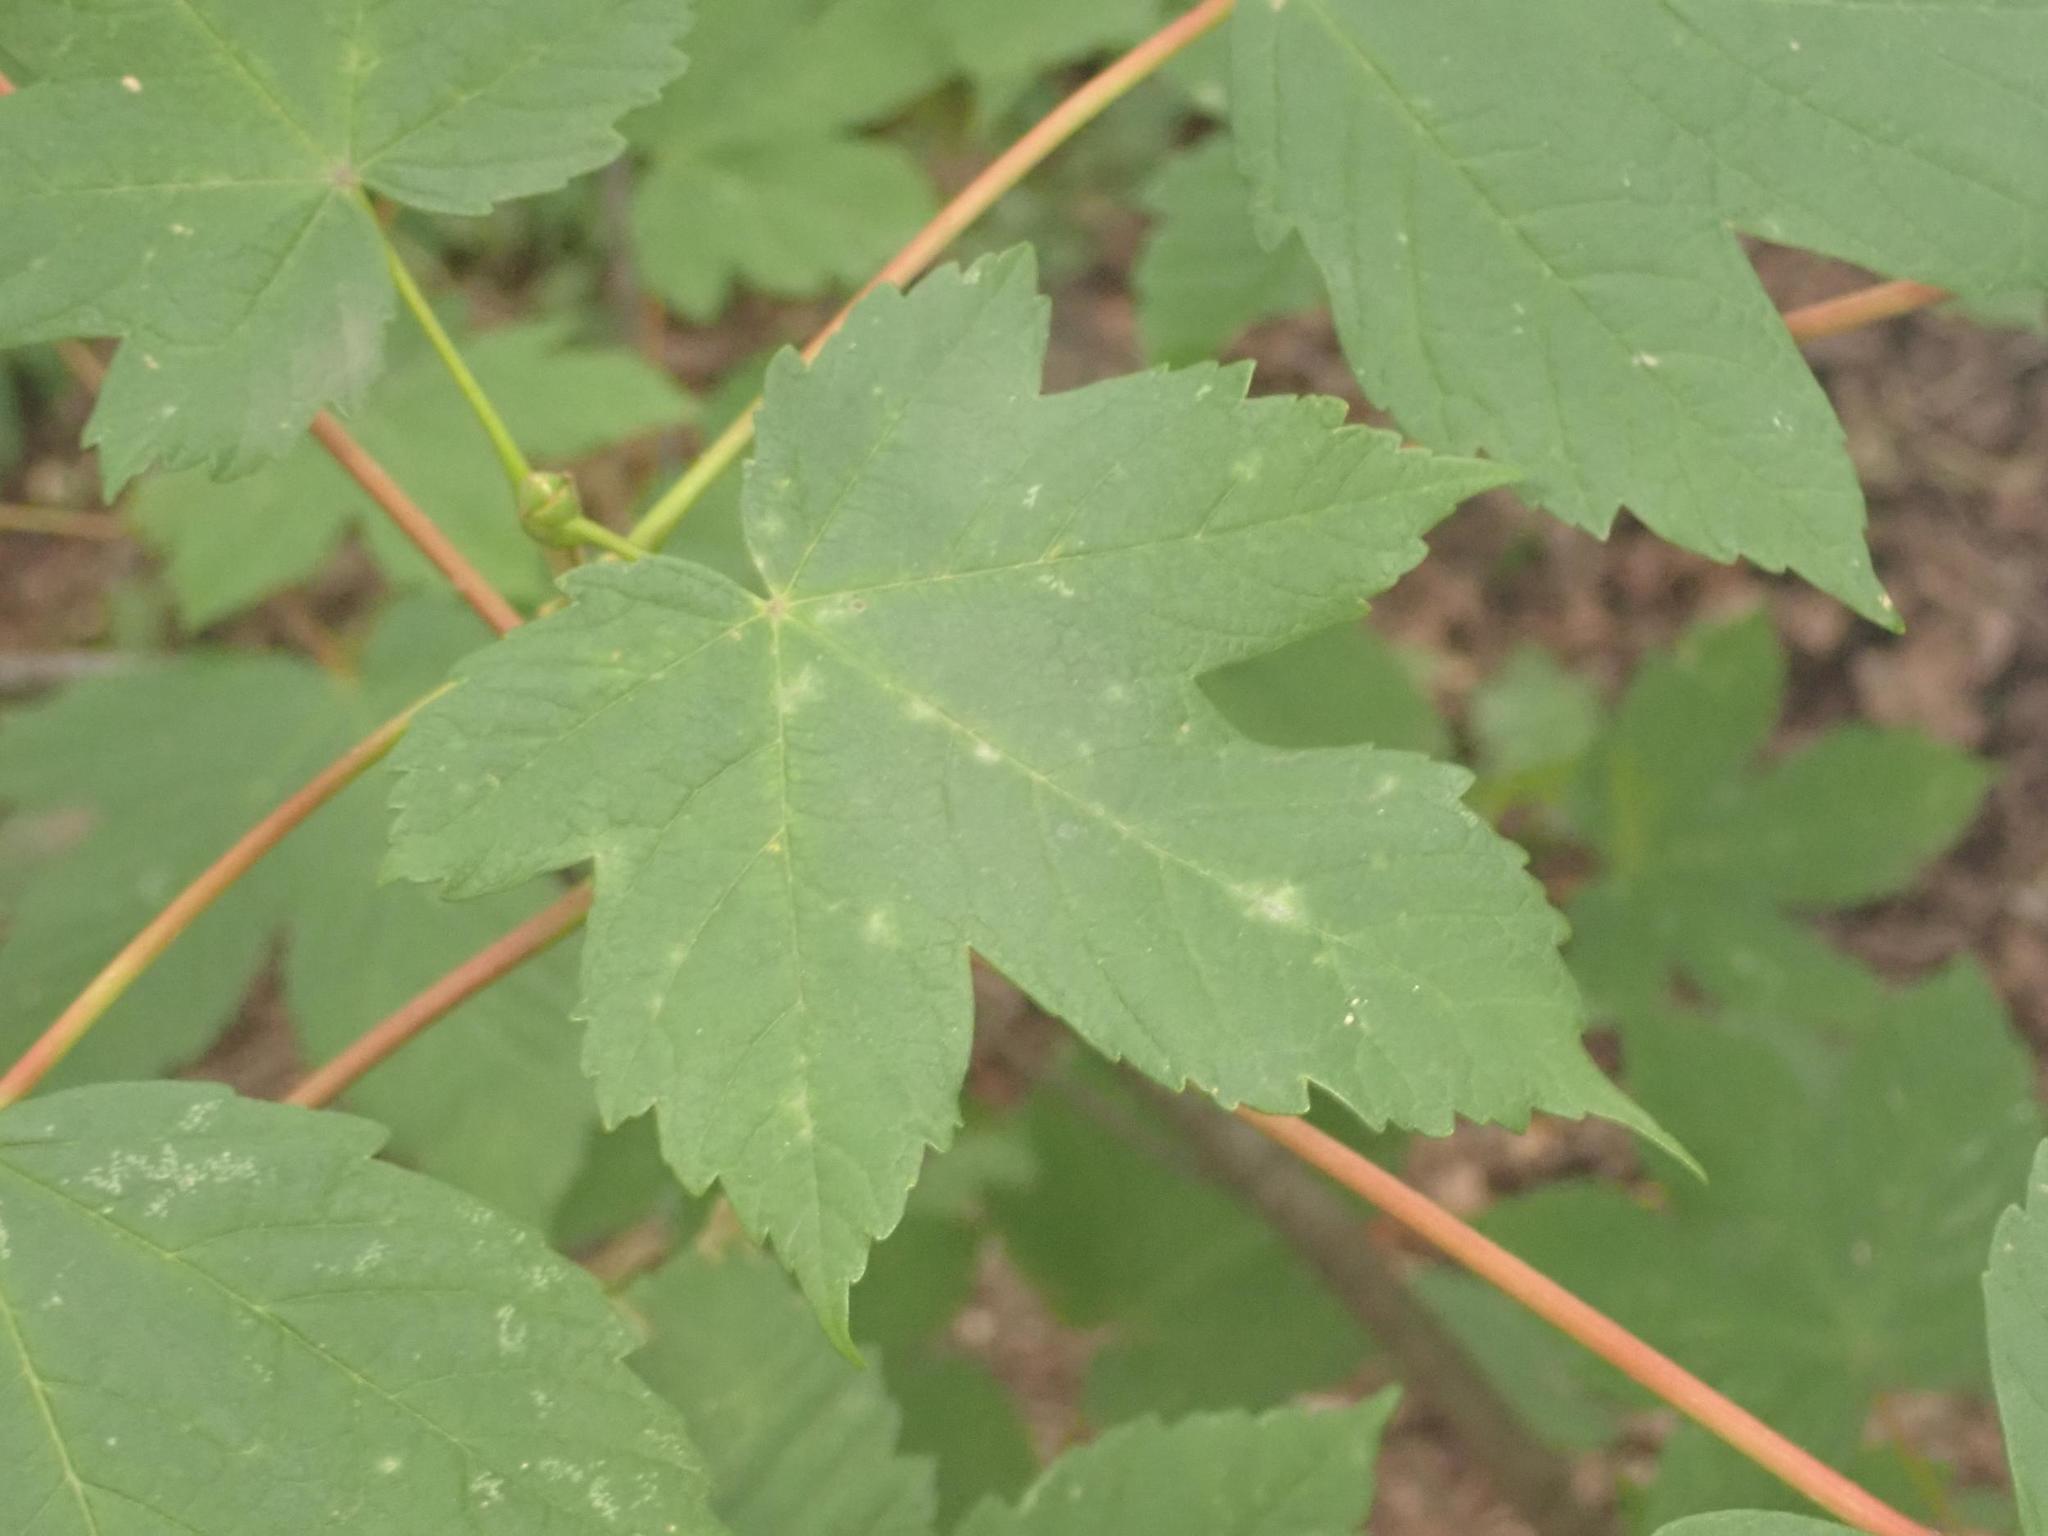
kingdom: Plantae
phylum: Tracheophyta
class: Magnoliopsida
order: Sapindales
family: Sapindaceae
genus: Acer
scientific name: Acer pseudoplatanus
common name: Sycamore
